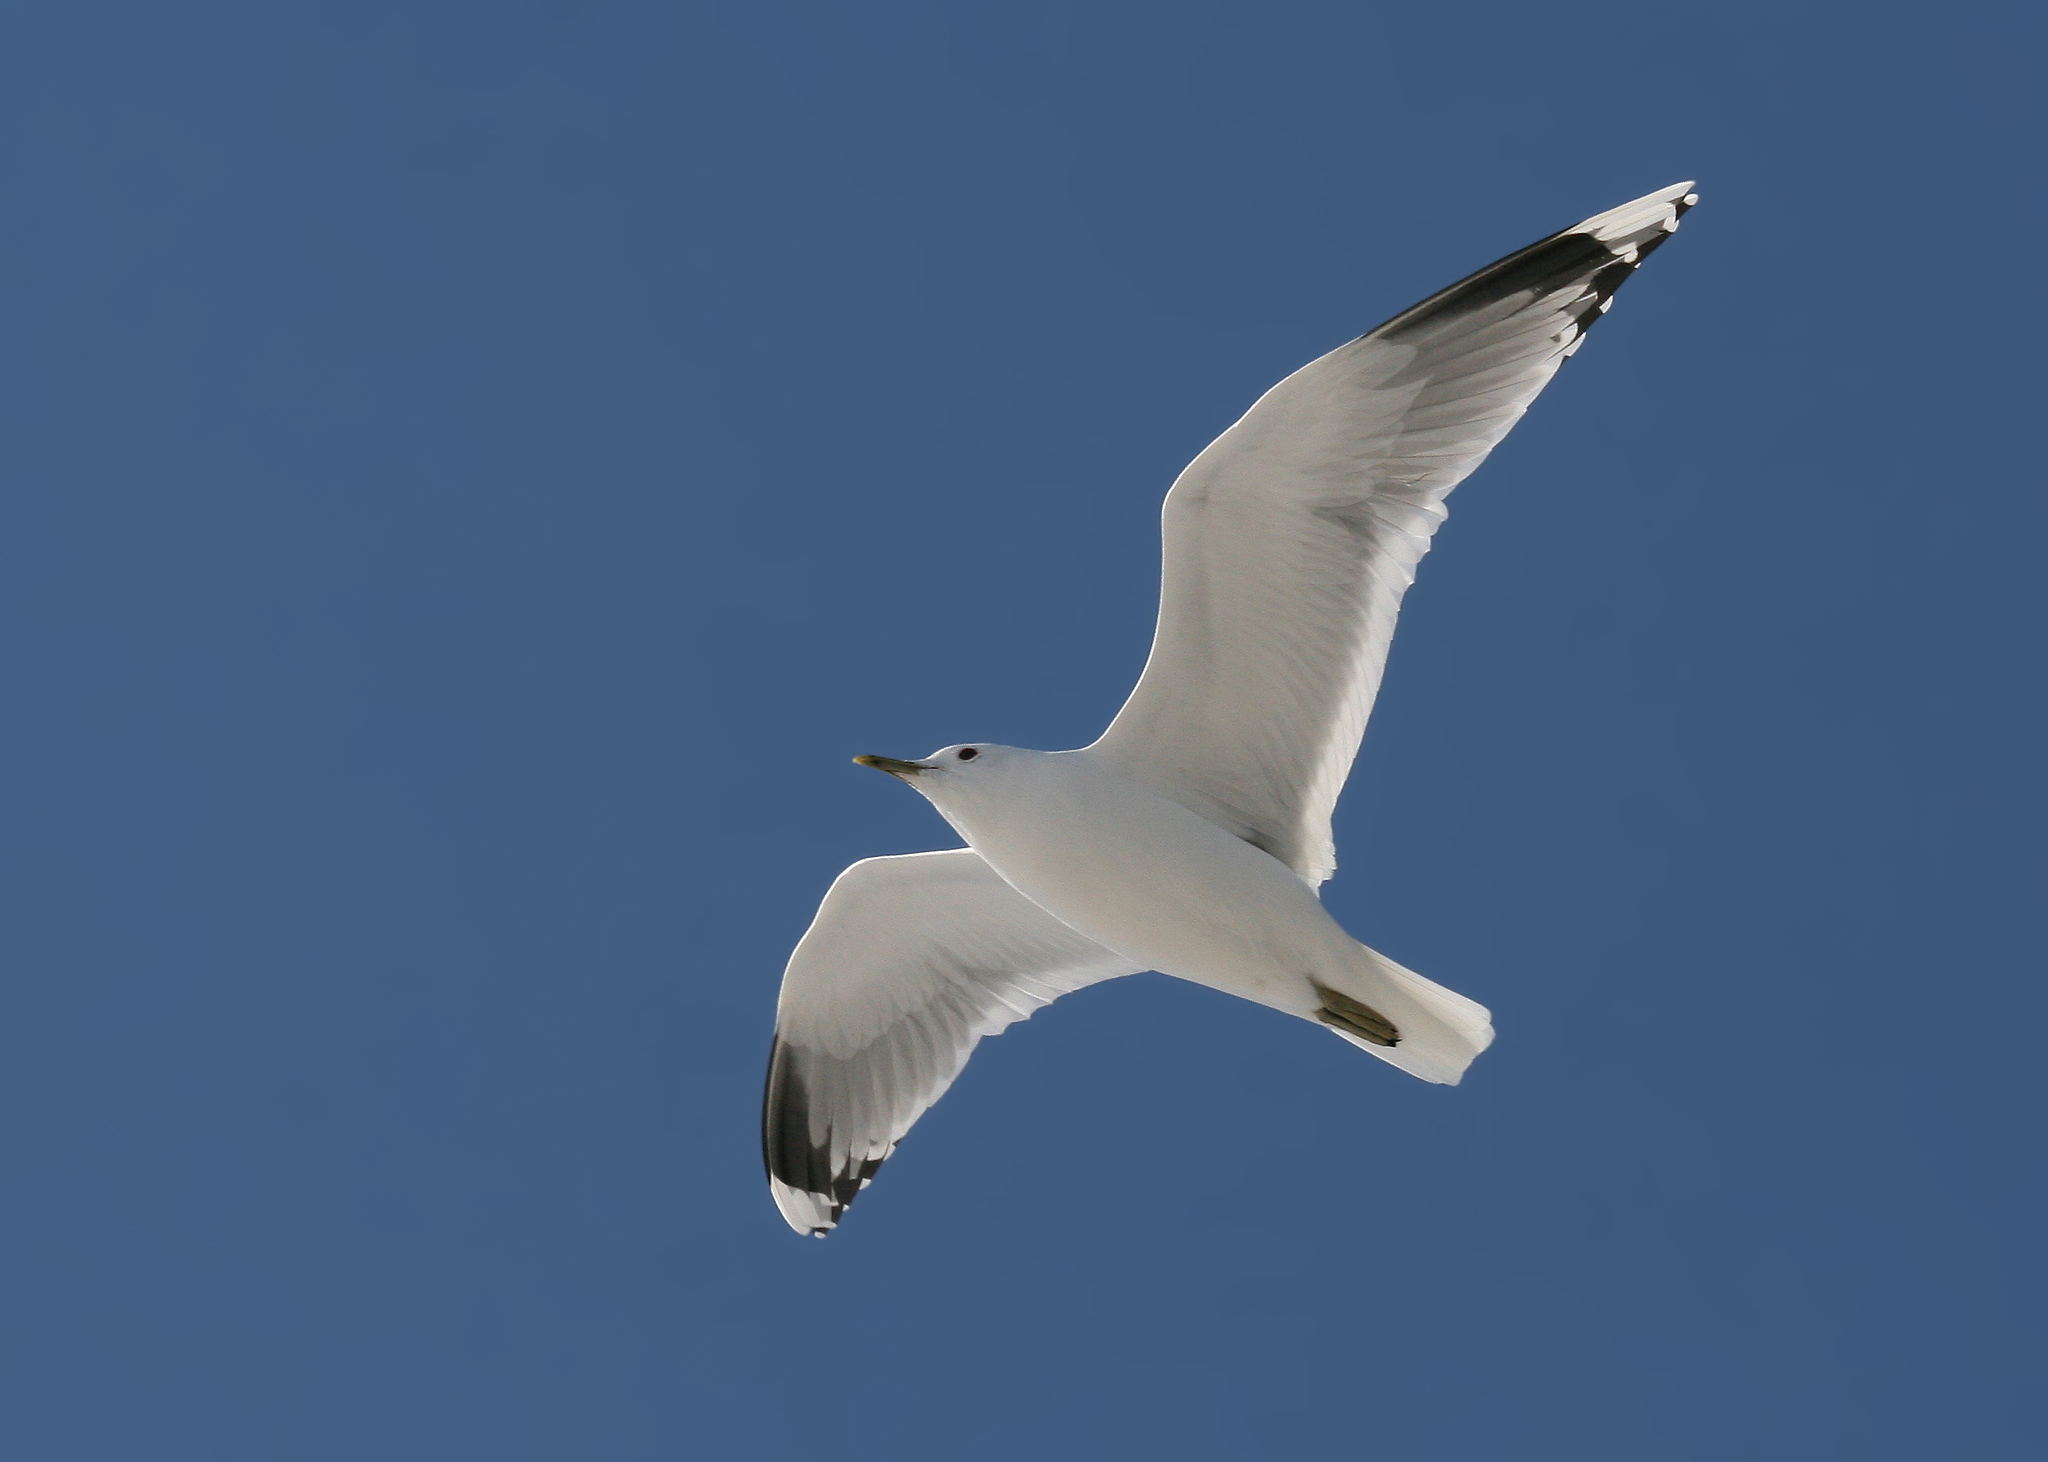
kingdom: Animalia
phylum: Chordata
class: Aves
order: Charadriiformes
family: Laridae
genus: Larus
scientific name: Larus canus
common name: Mew gull
